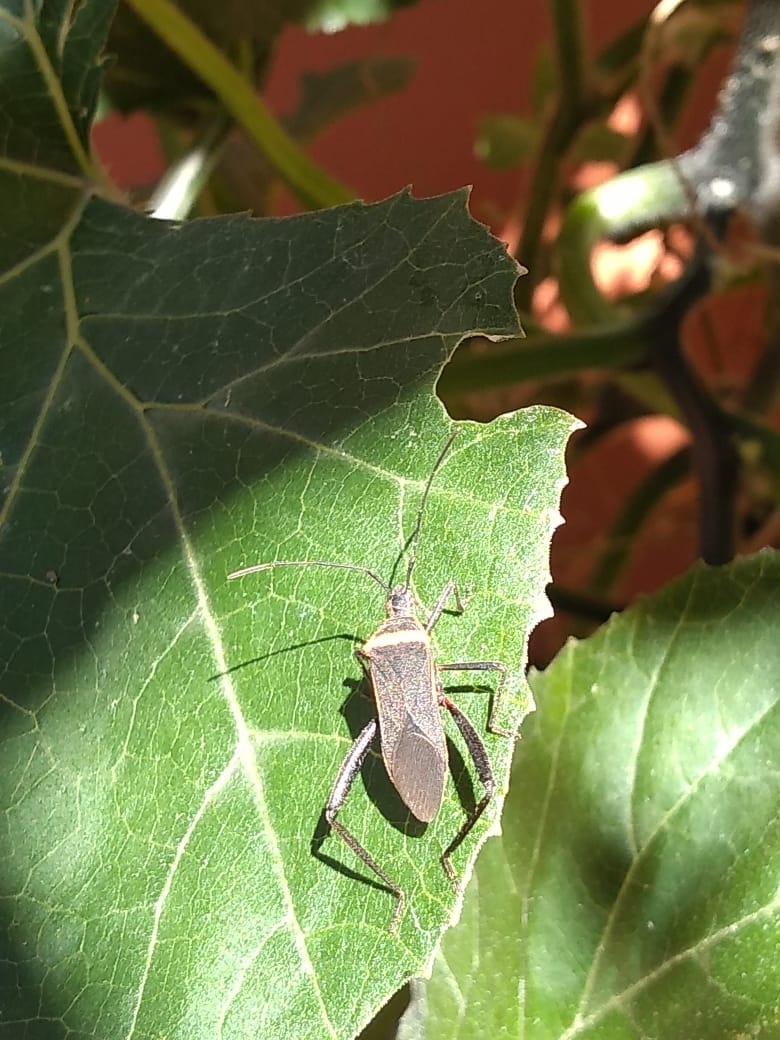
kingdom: Animalia
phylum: Arthropoda
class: Insecta
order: Hemiptera
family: Coreidae
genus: Phthiacnemia
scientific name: Phthiacnemia picta
